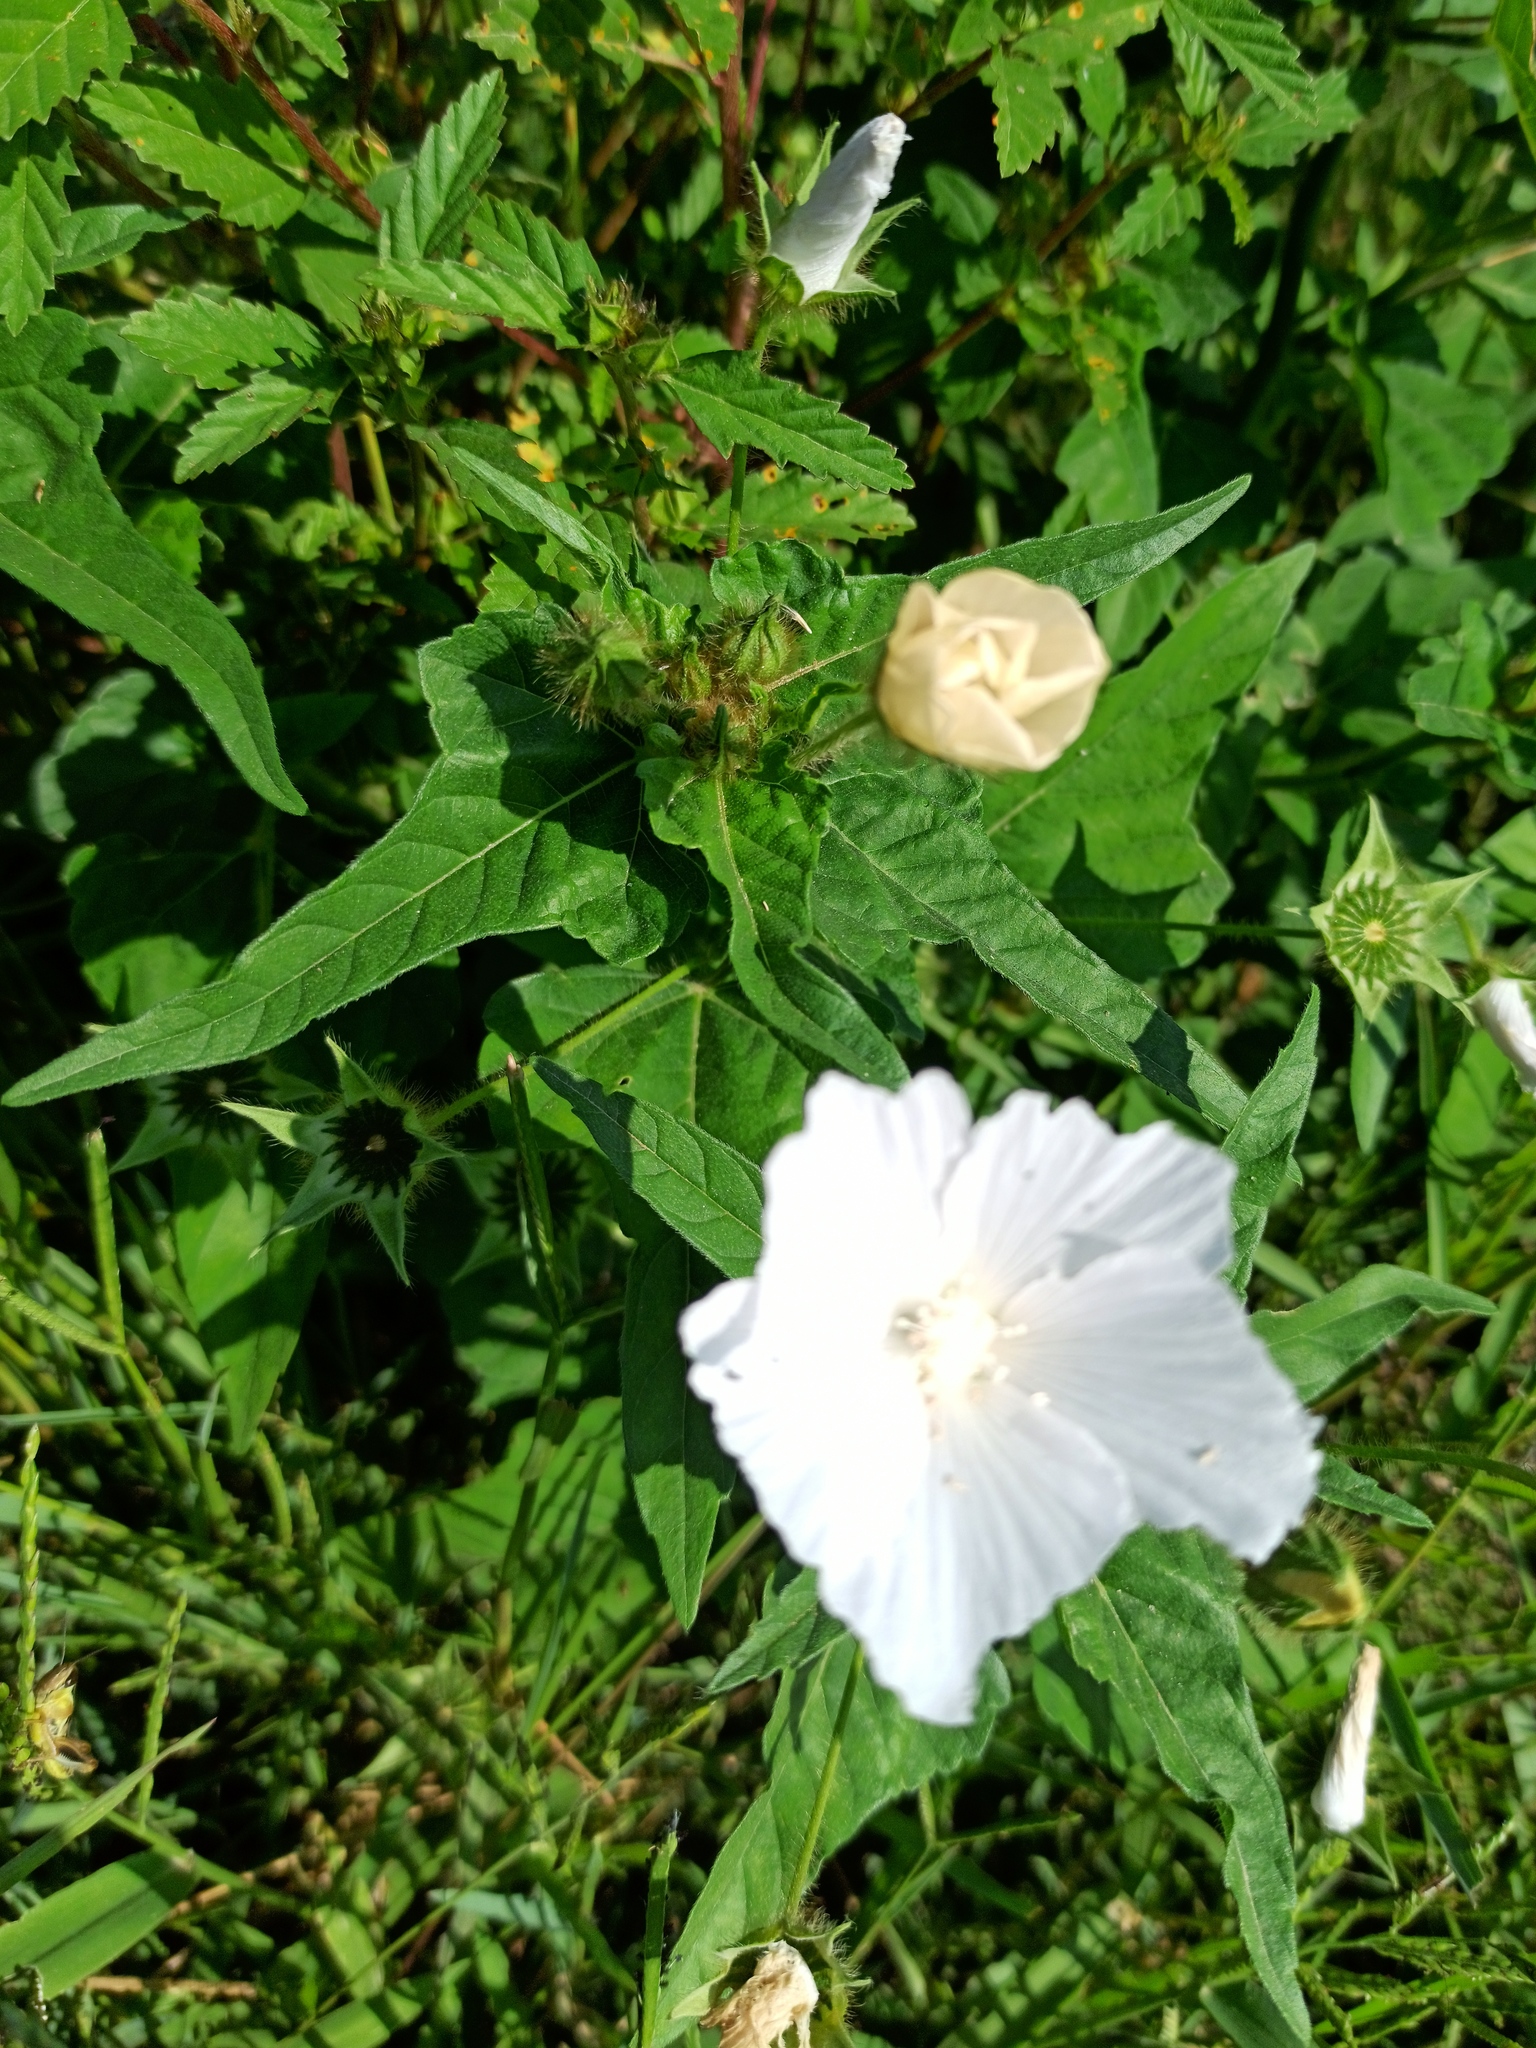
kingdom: Plantae
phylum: Tracheophyta
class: Magnoliopsida
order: Malvales
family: Malvaceae
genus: Anoda
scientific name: Anoda albiflora
